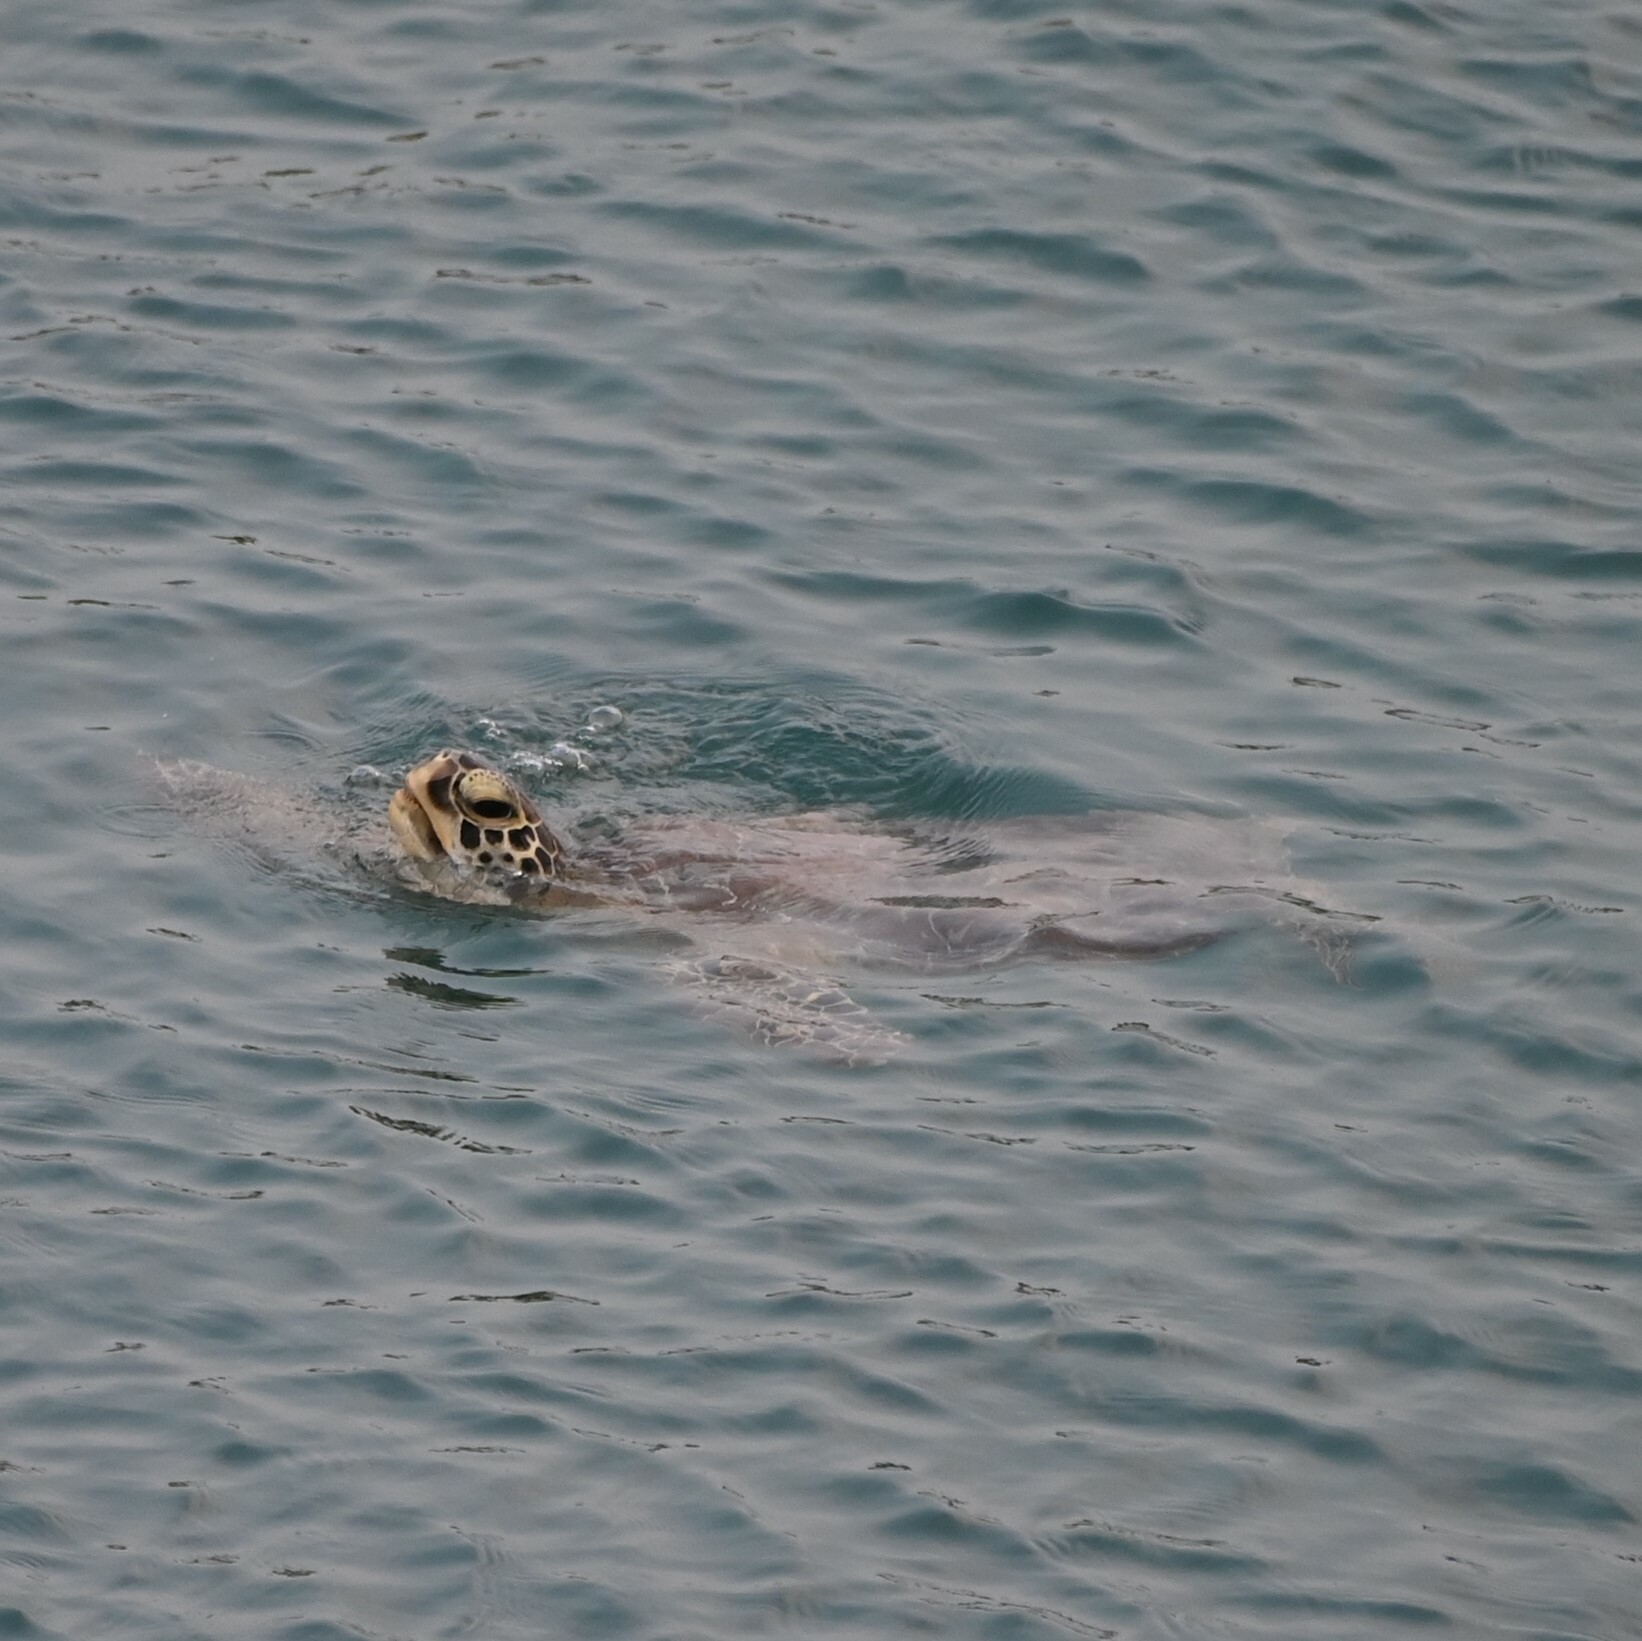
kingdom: Animalia
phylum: Chordata
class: Testudines
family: Cheloniidae
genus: Chelonia
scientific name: Chelonia mydas
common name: Green turtle
